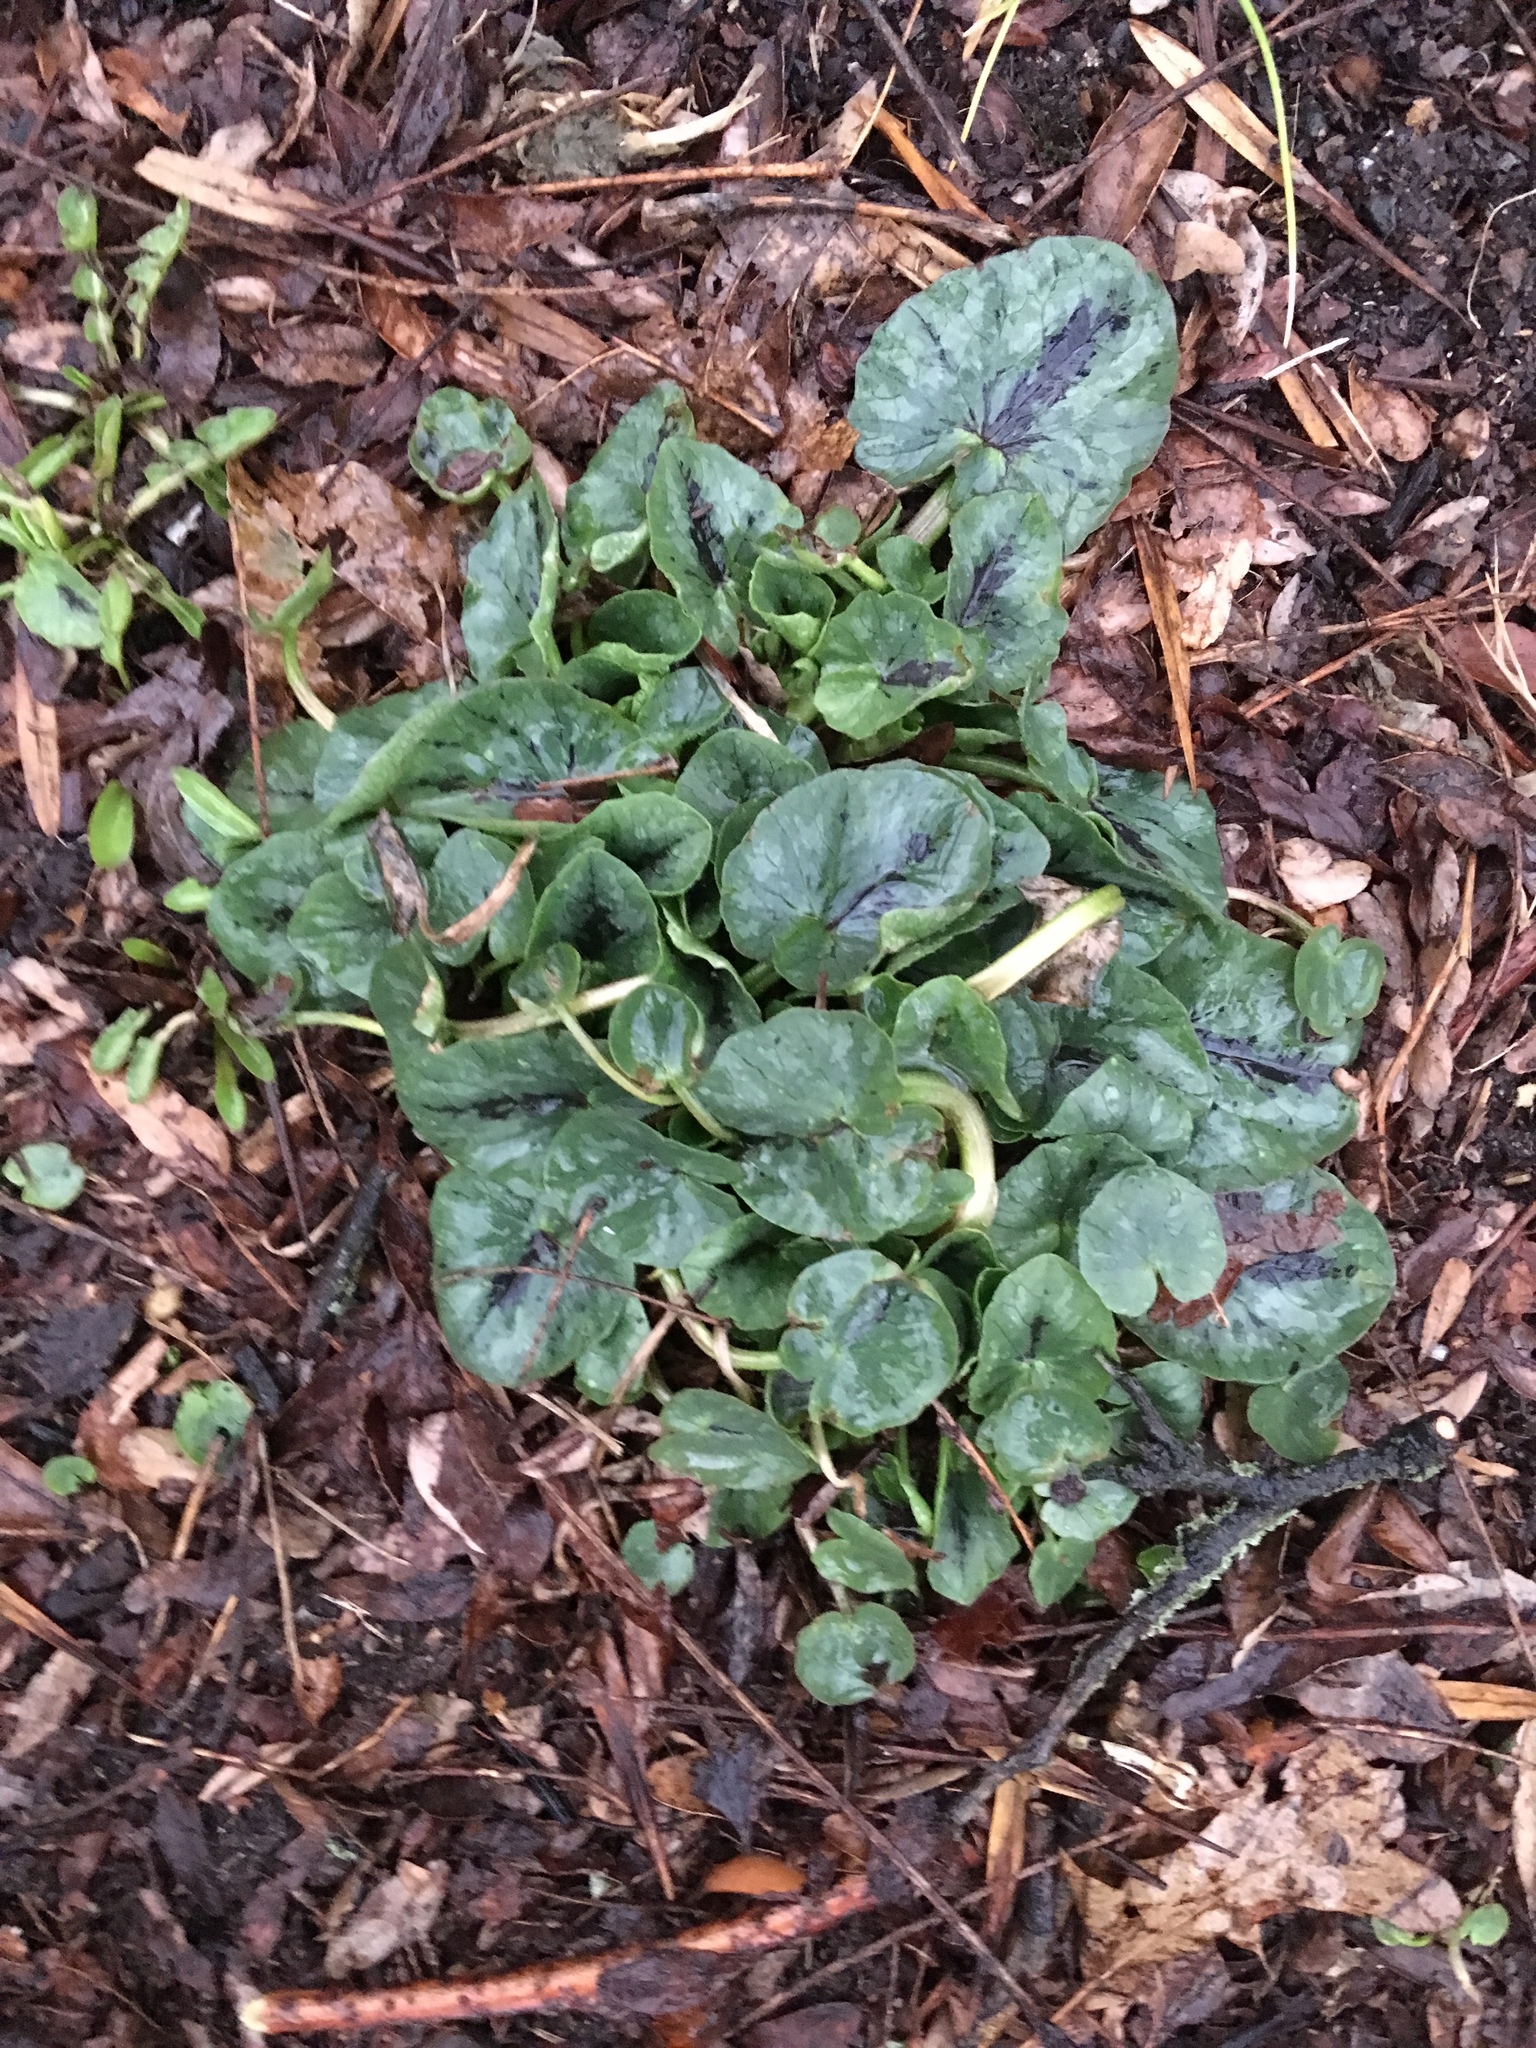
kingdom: Plantae
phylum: Tracheophyta
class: Magnoliopsida
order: Ranunculales
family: Ranunculaceae
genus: Ficaria
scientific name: Ficaria verna
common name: Lesser celandine
